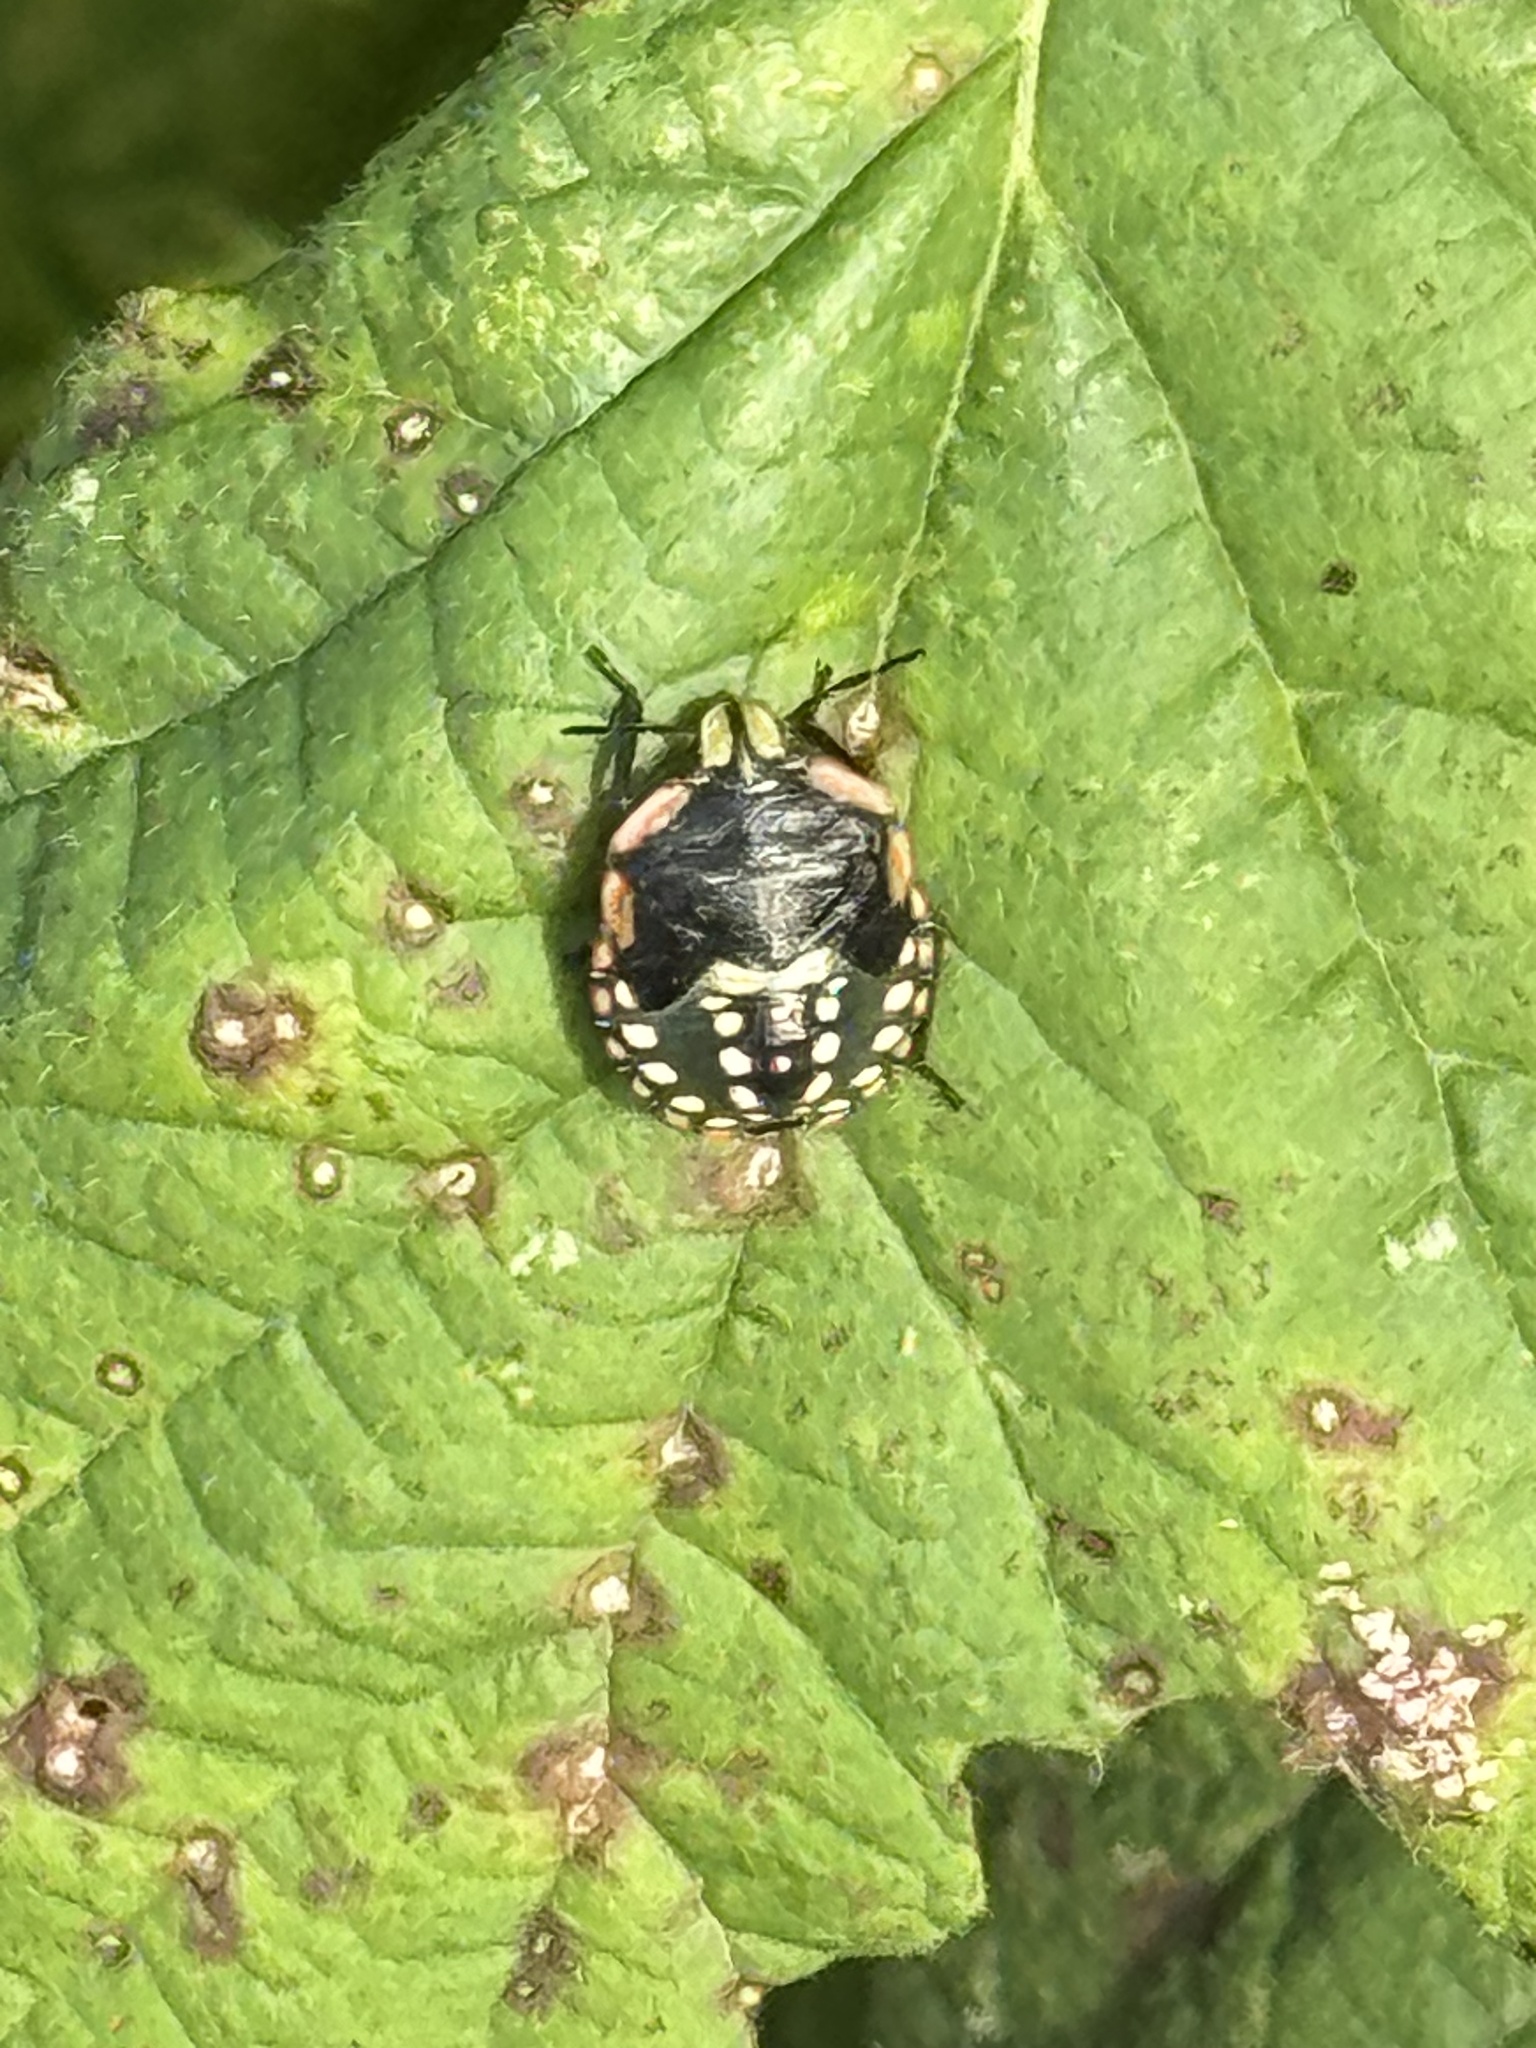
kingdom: Animalia
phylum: Arthropoda
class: Insecta
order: Hemiptera
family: Pentatomidae
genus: Nezara
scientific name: Nezara viridula
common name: Southern green stink bug
